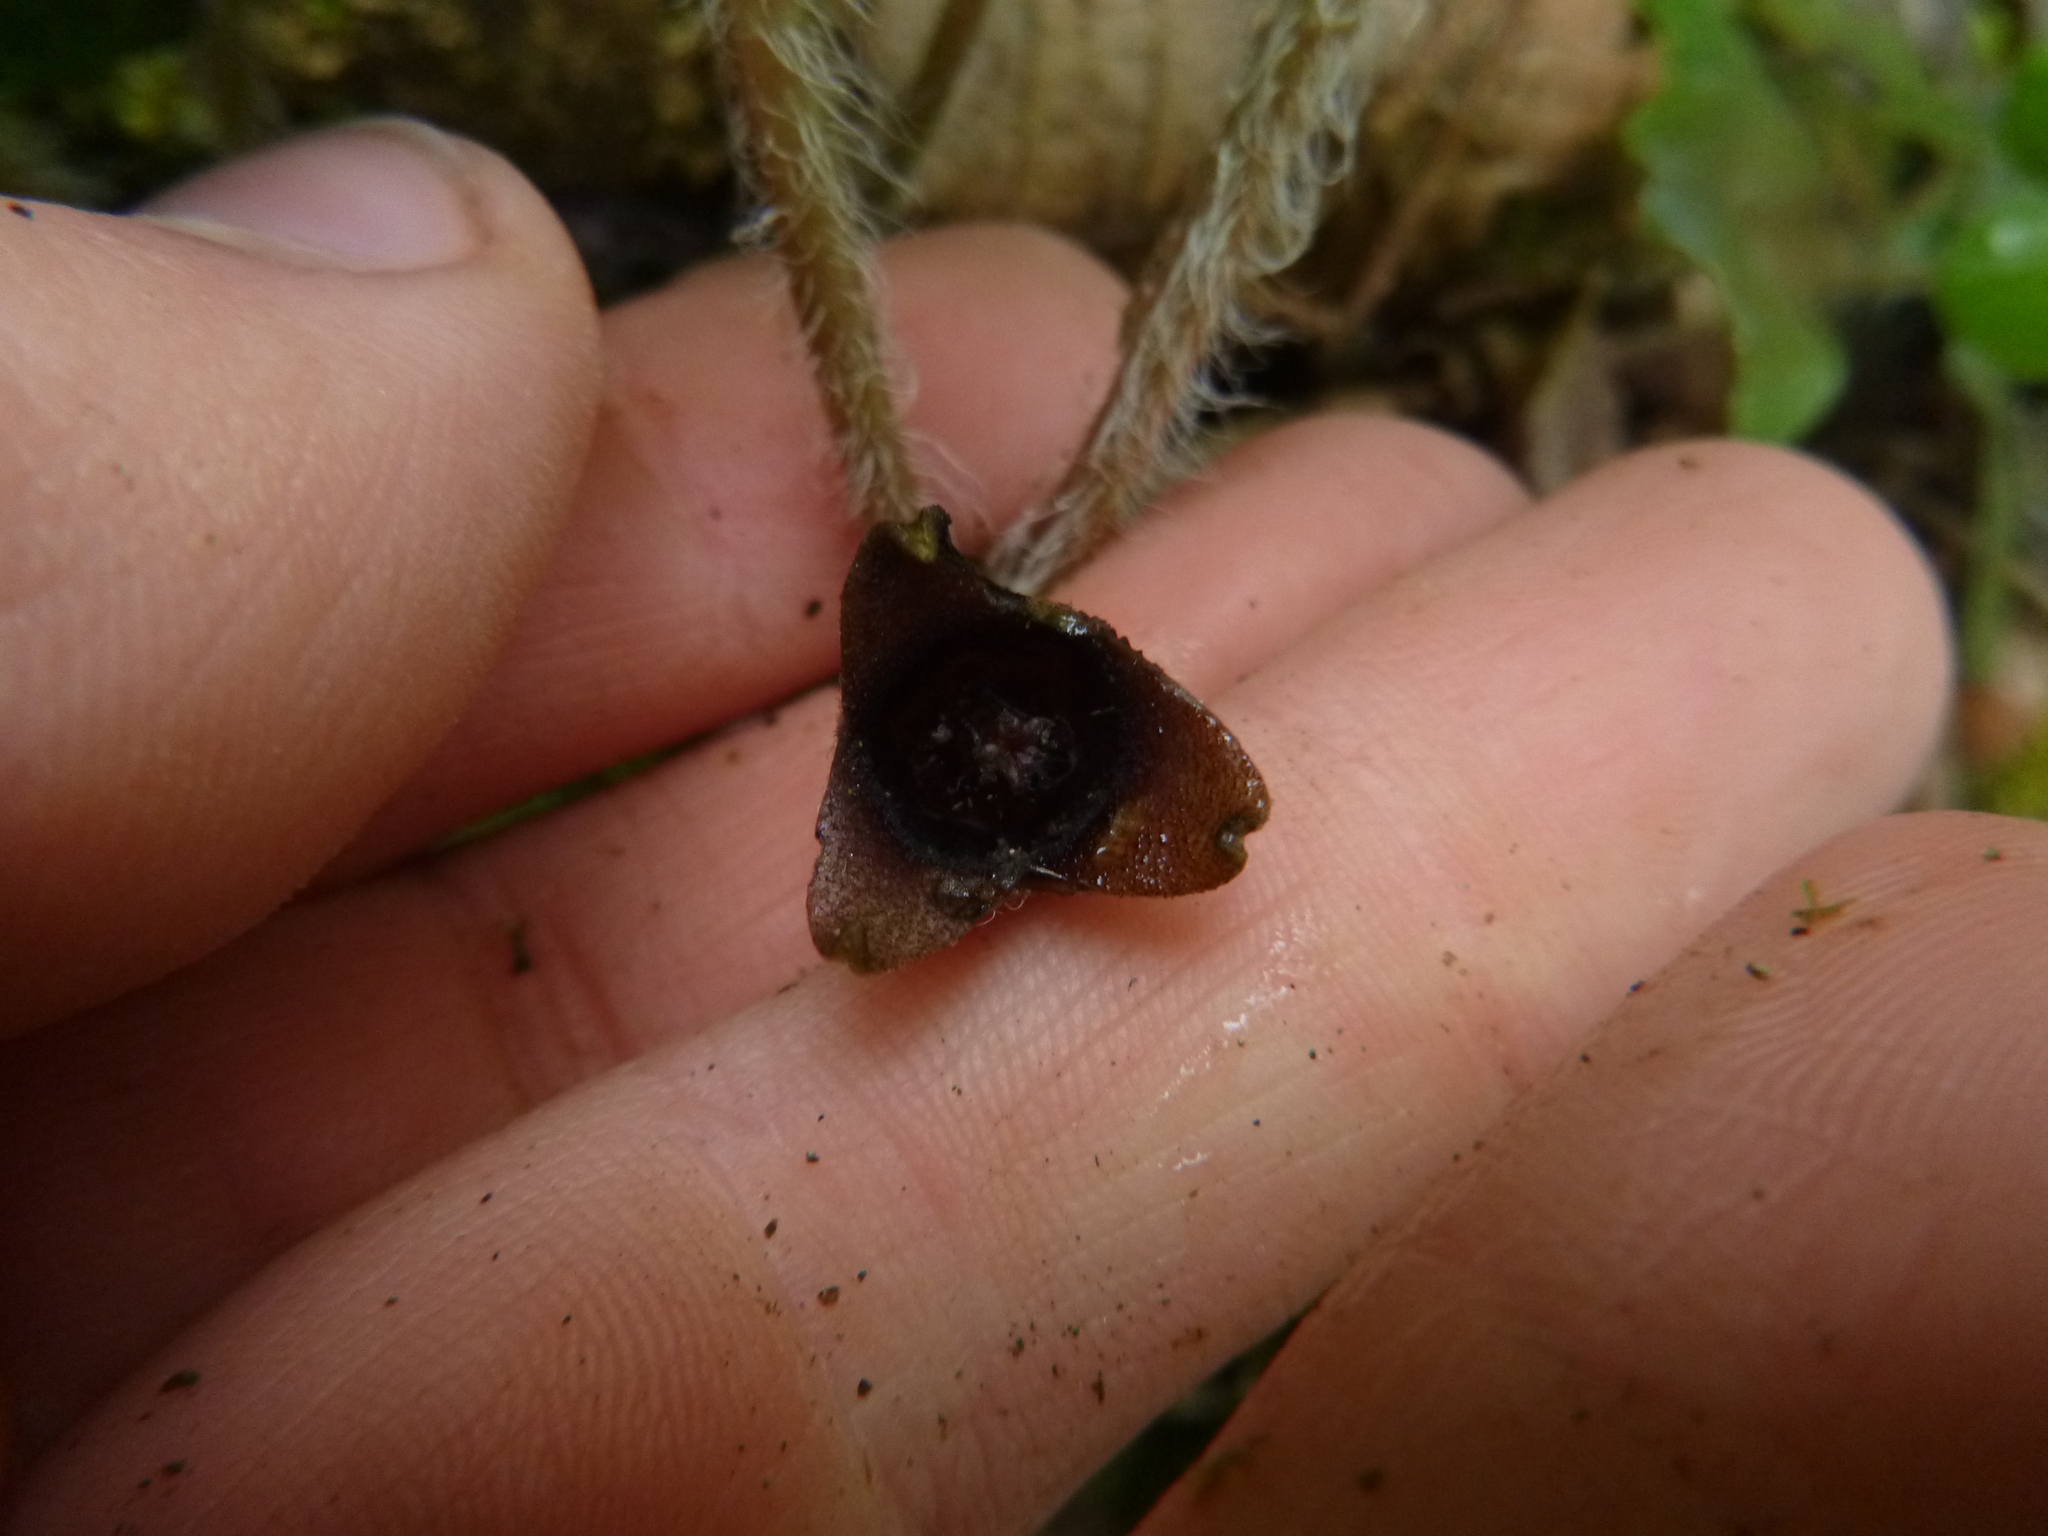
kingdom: Plantae
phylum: Tracheophyta
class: Magnoliopsida
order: Piperales
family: Aristolochiaceae
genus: Asarum
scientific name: Asarum europaeum
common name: Asarabacca
